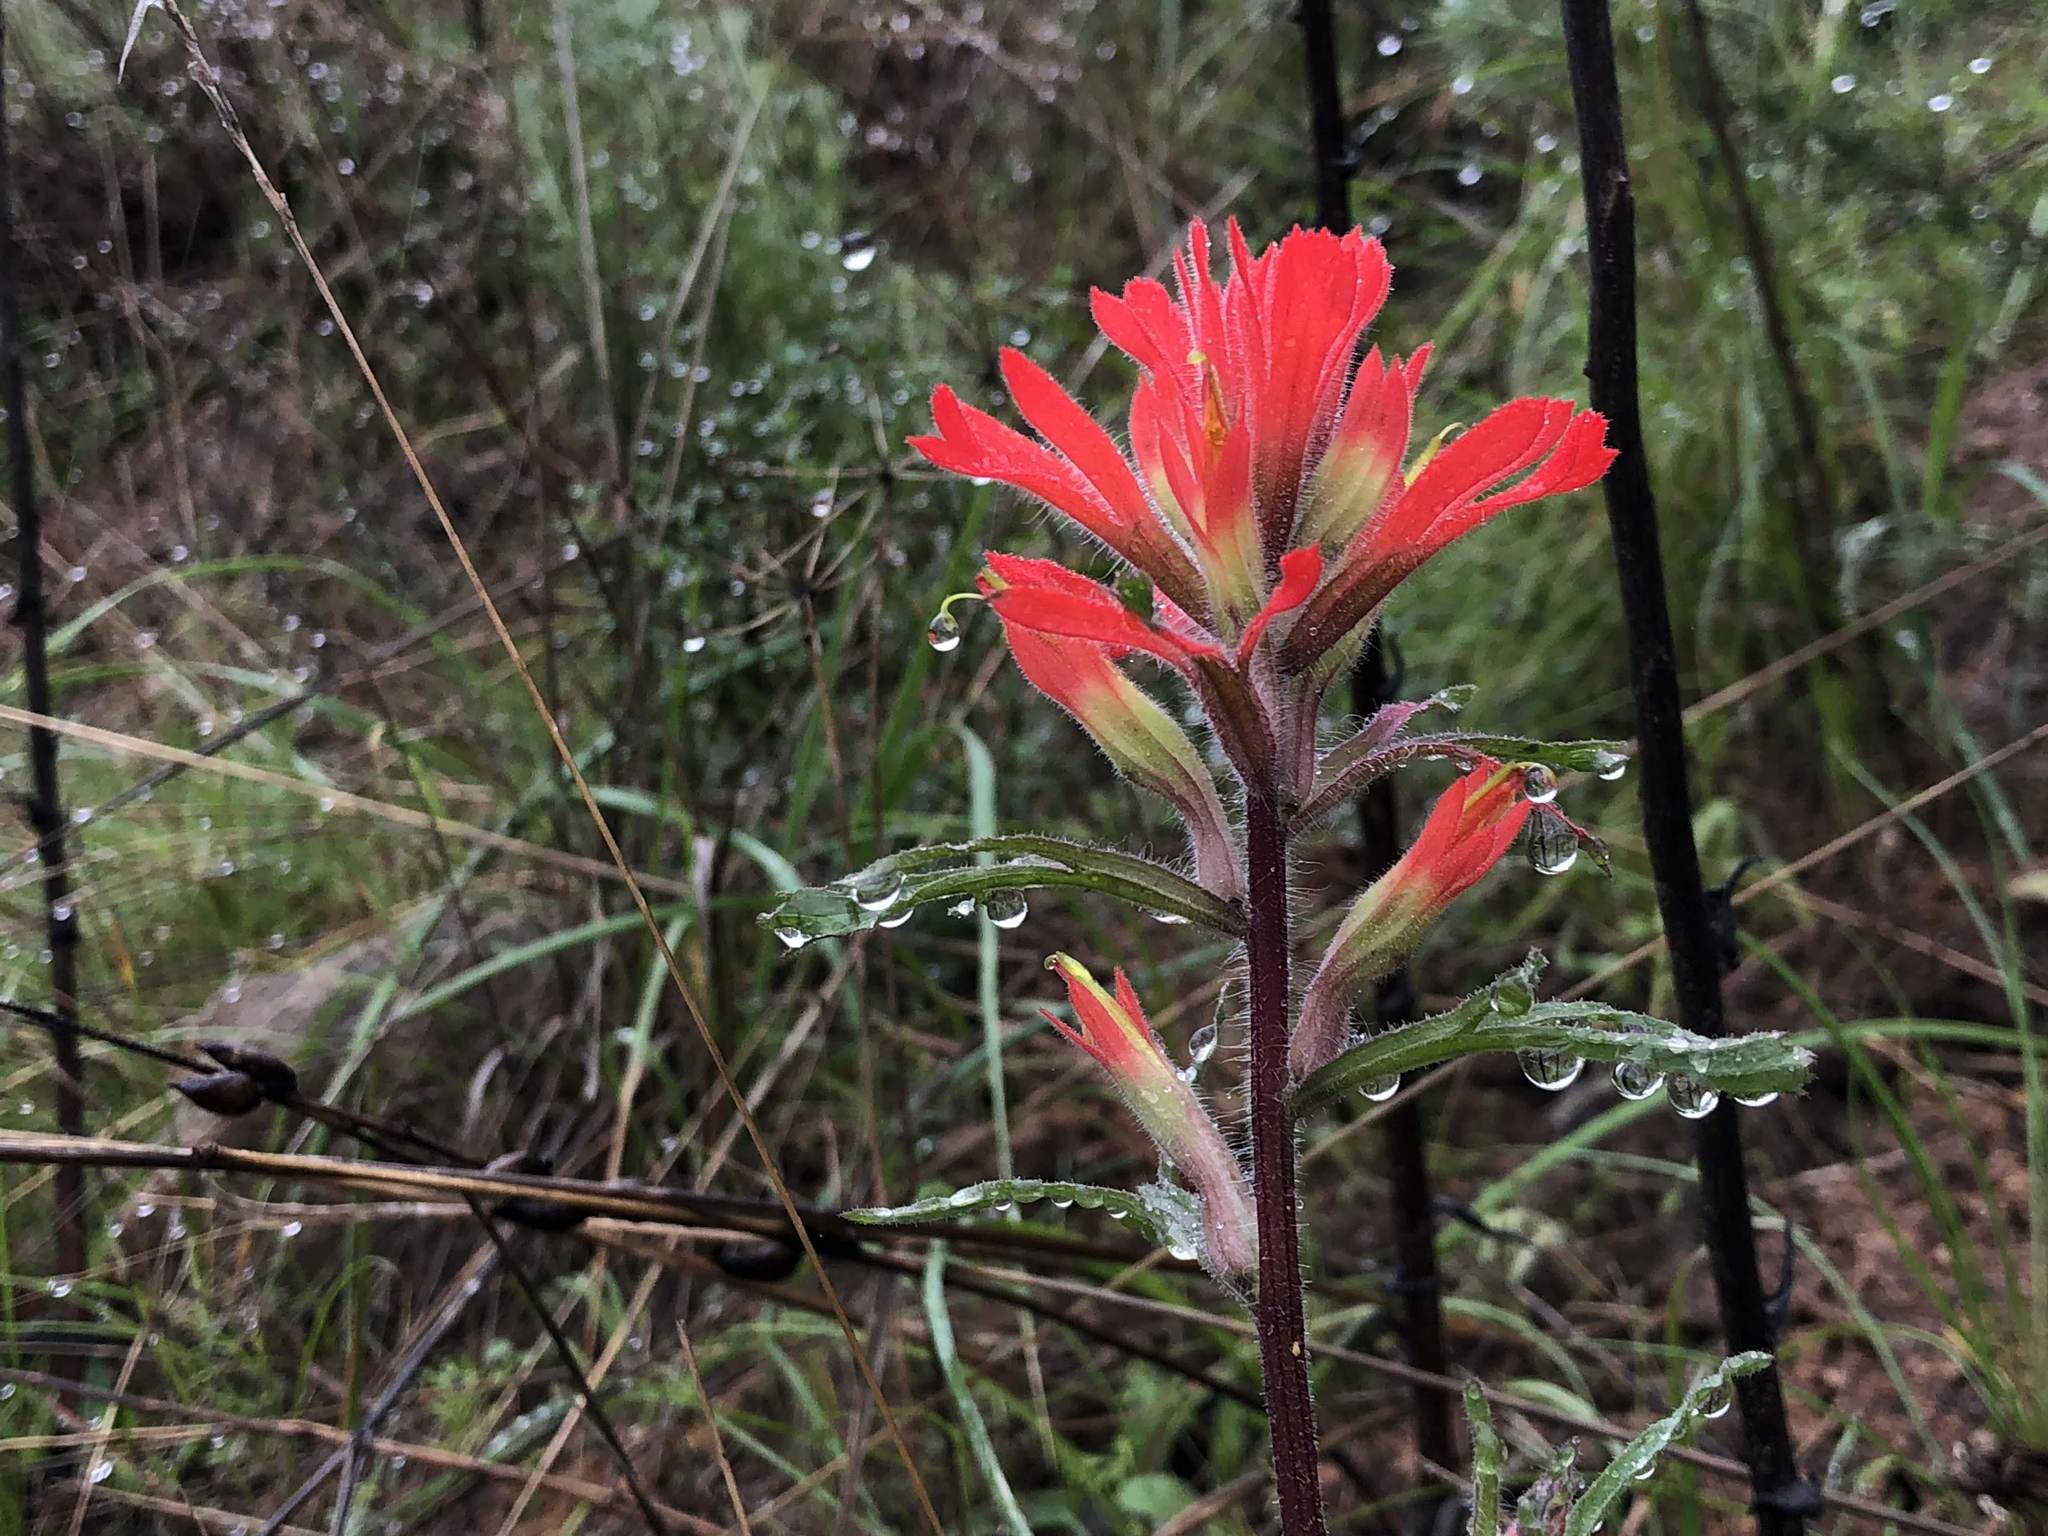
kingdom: Plantae
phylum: Tracheophyta
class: Magnoliopsida
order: Lamiales
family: Orobanchaceae
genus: Castilleja
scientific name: Castilleja affinis
